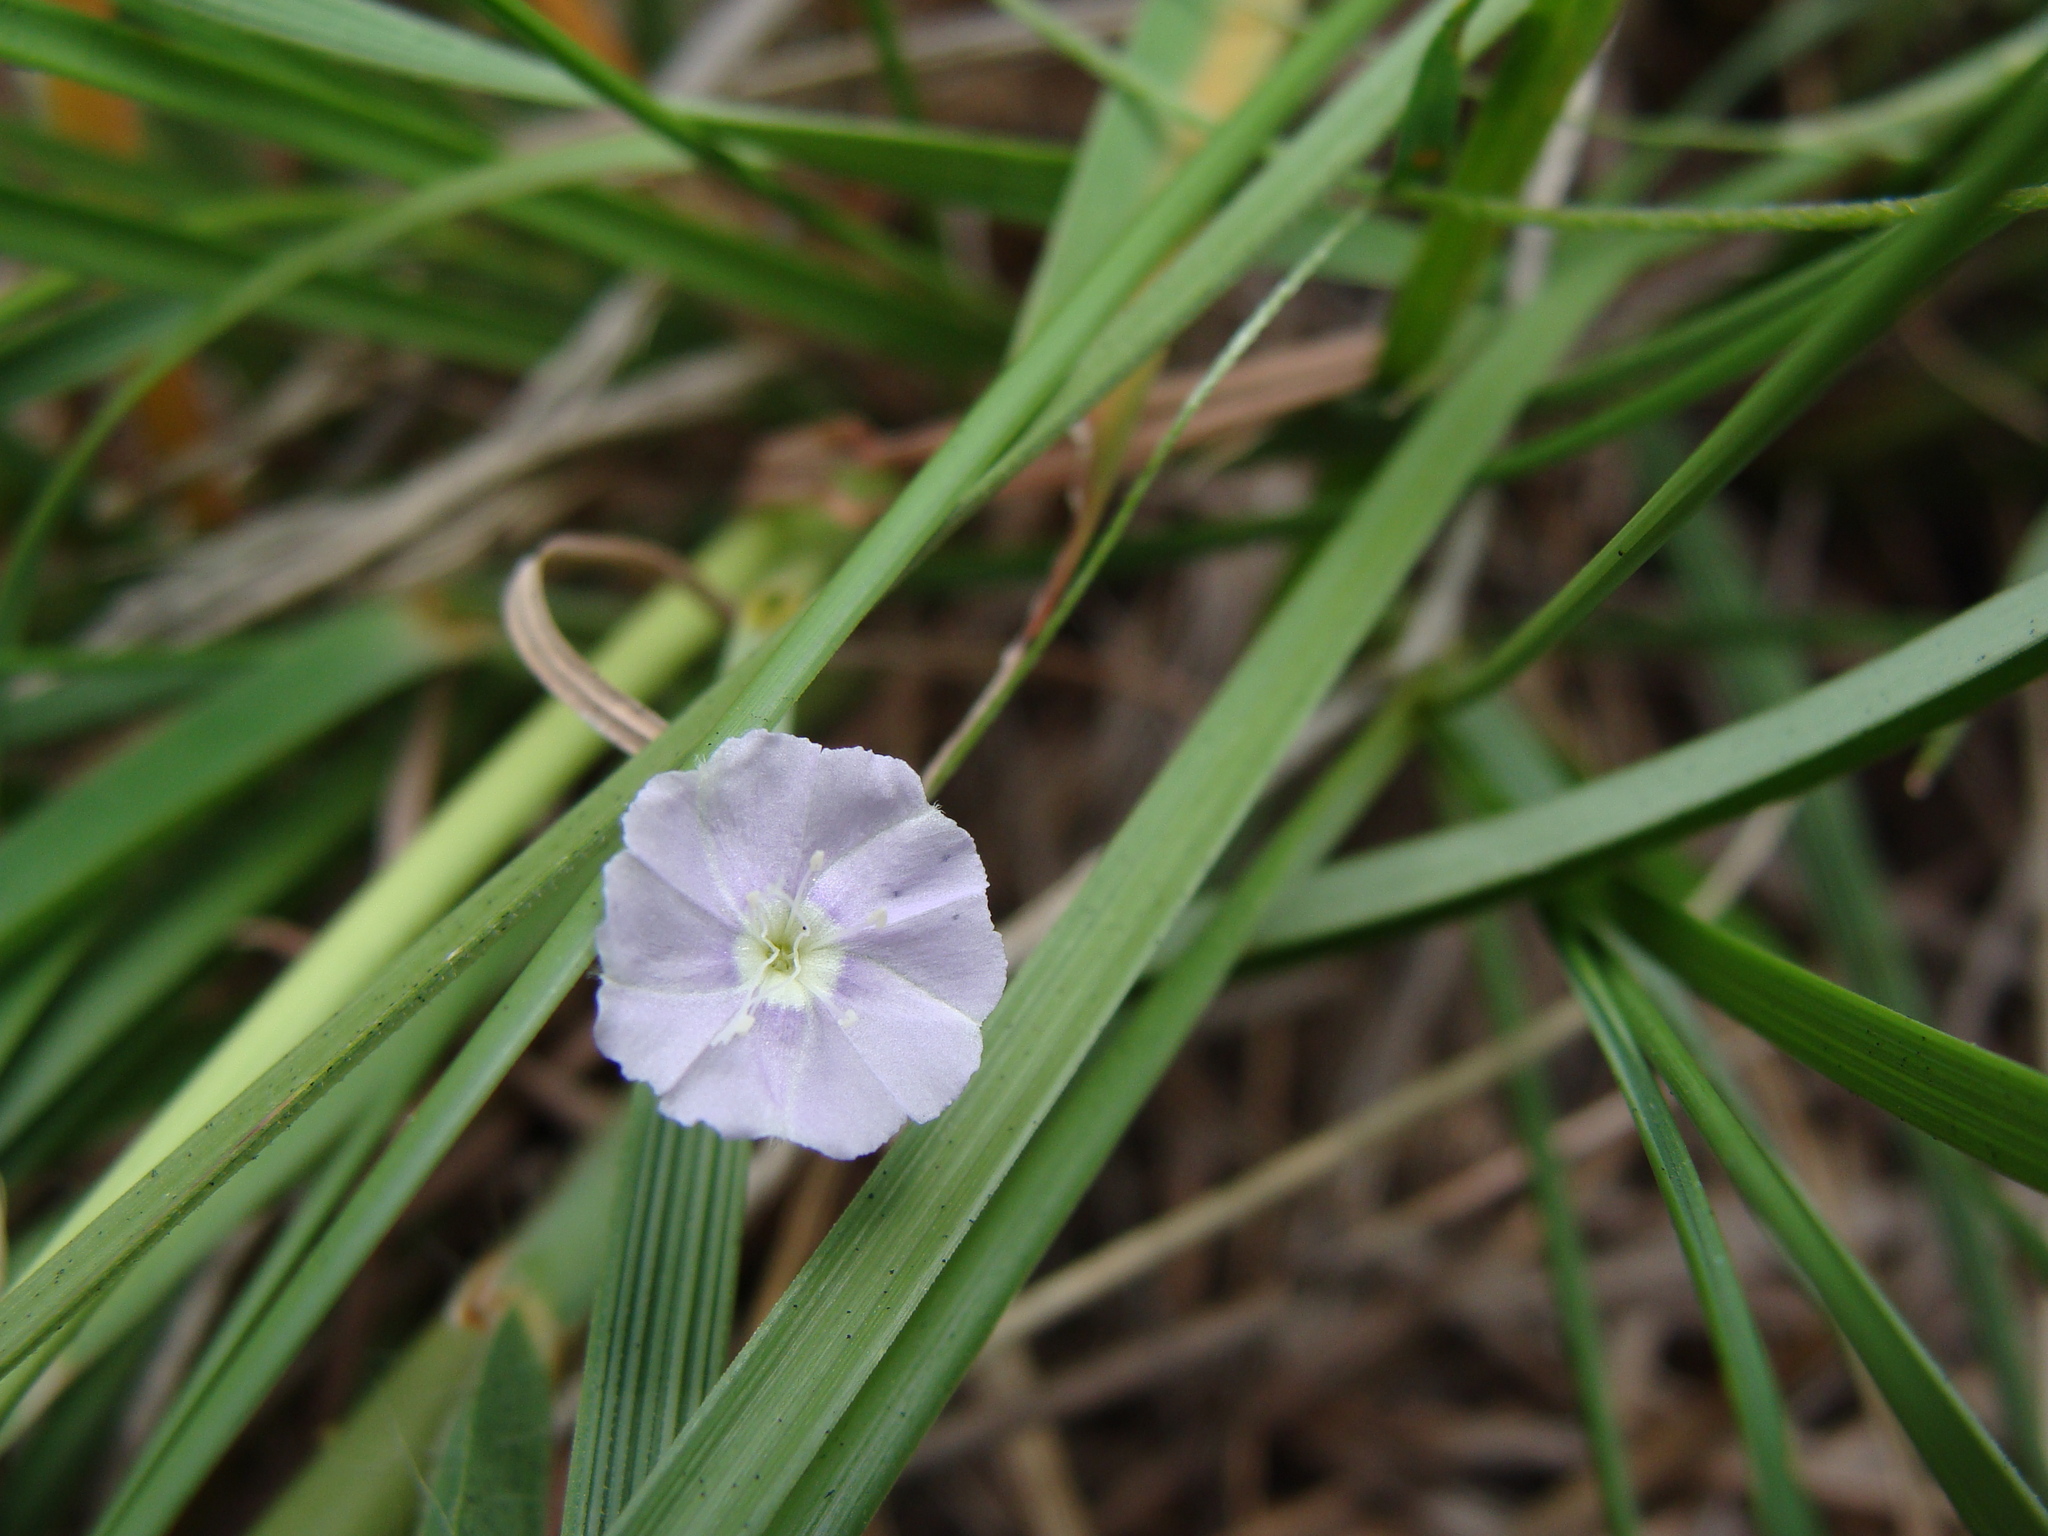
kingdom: Plantae
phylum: Tracheophyta
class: Magnoliopsida
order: Solanales
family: Convolvulaceae
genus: Evolvulus
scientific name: Evolvulus alsinoides
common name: Slender dwarf morning-glory
